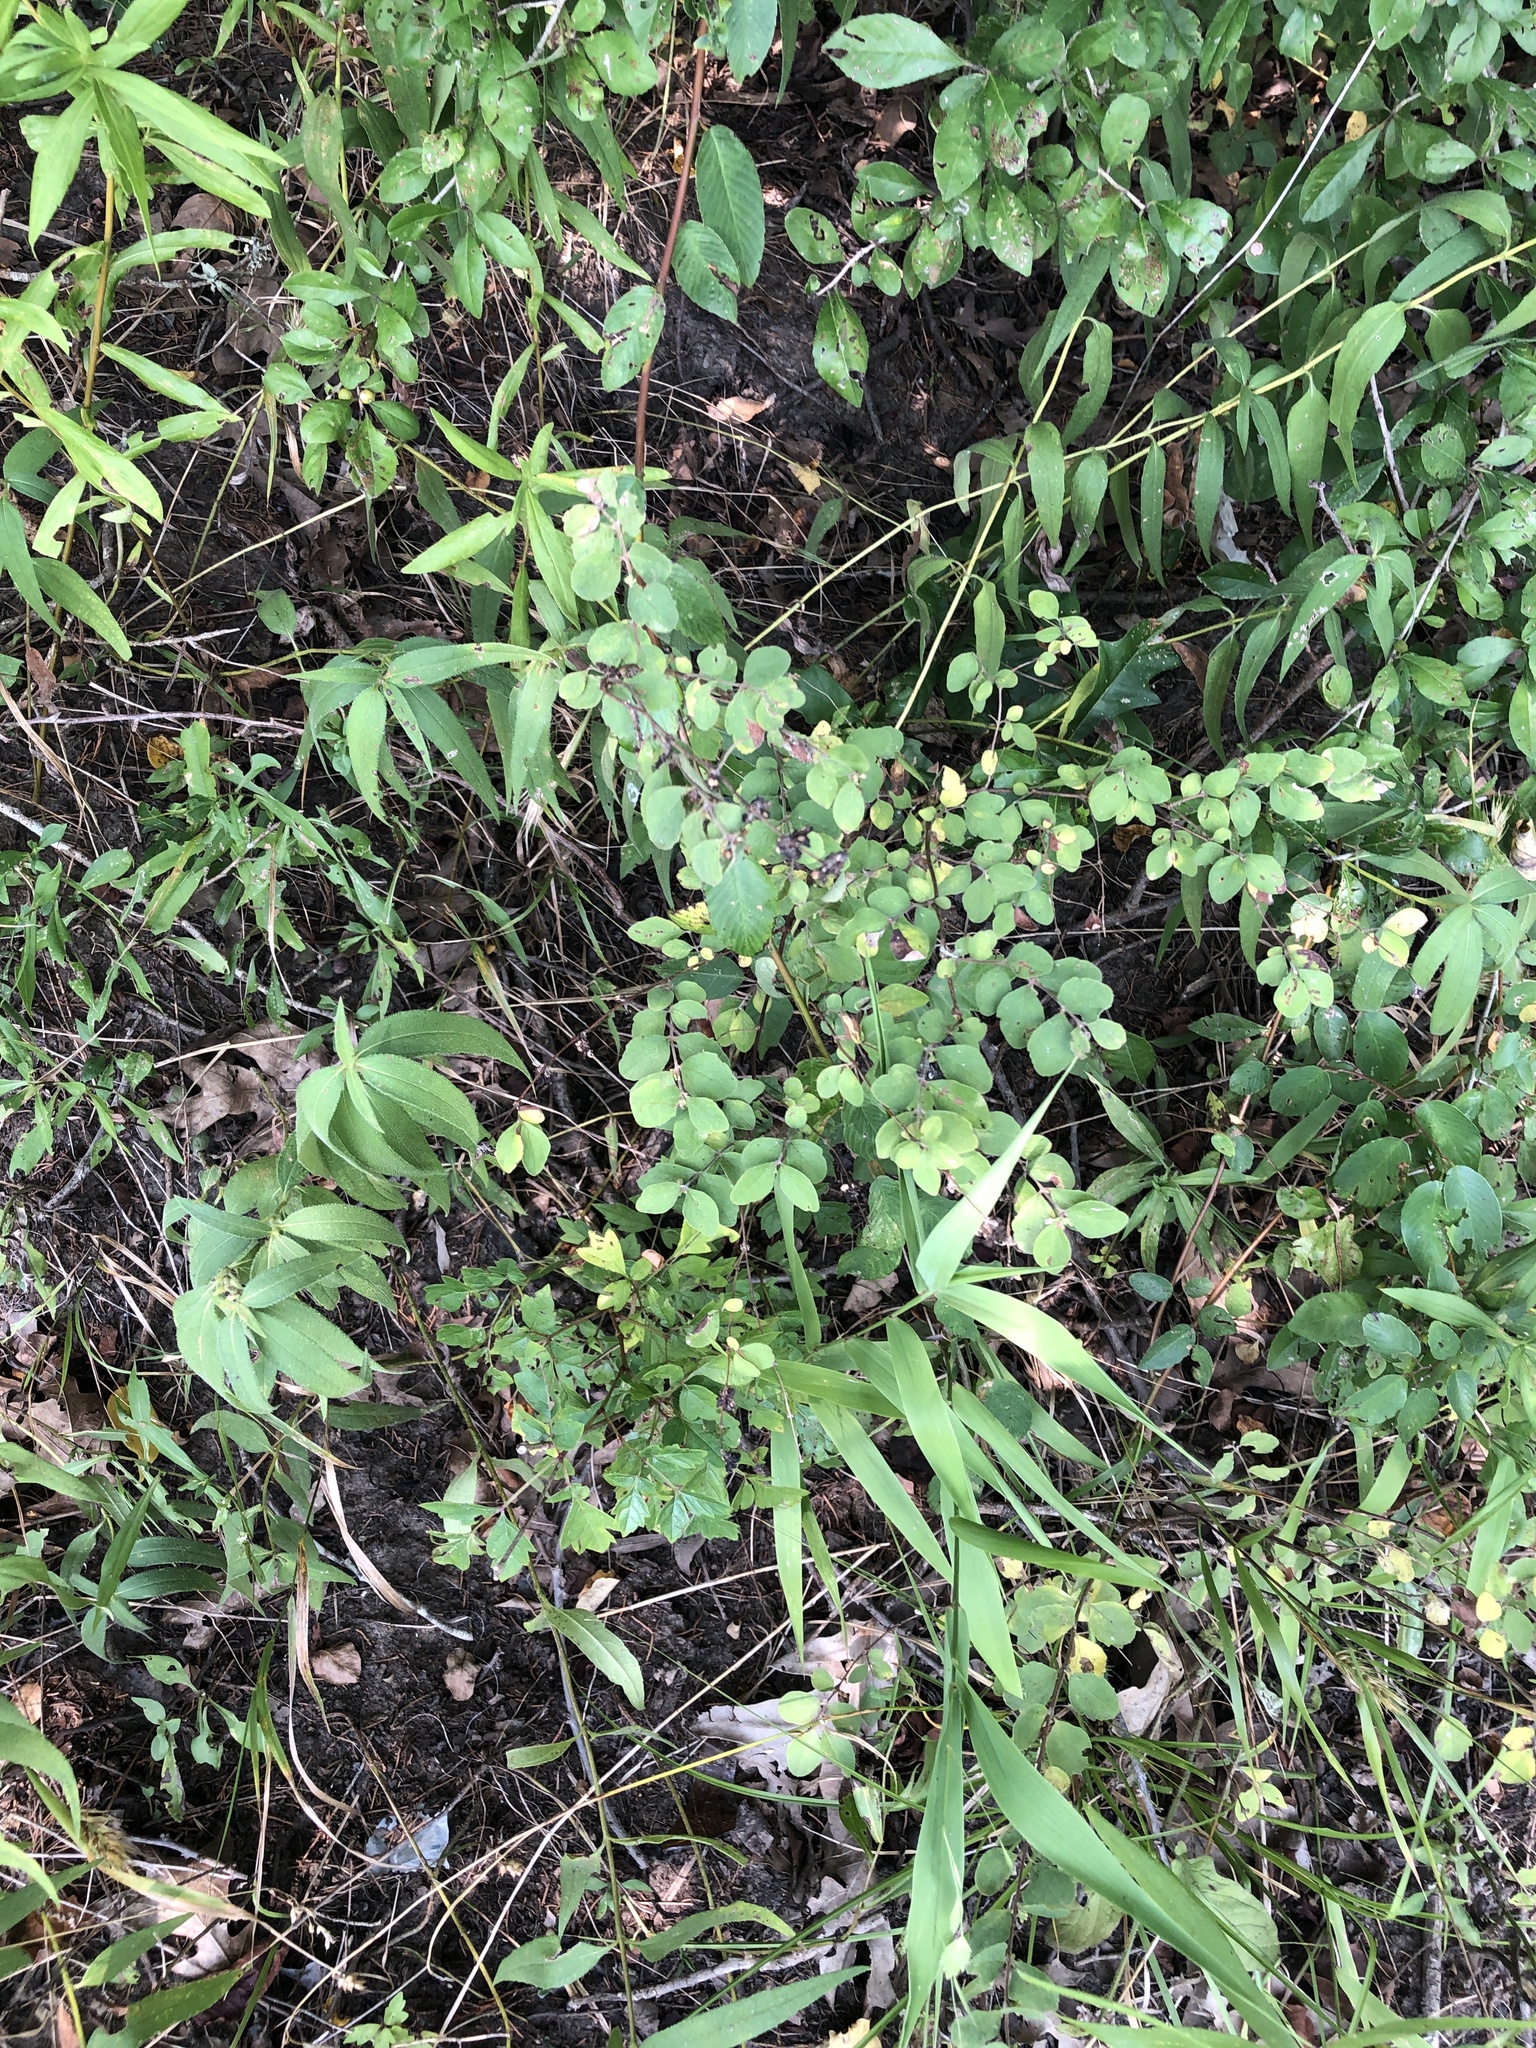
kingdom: Plantae
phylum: Tracheophyta
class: Magnoliopsida
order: Dipsacales
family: Caprifoliaceae
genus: Symphoricarpos
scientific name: Symphoricarpos orbiculatus
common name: Coralberry
